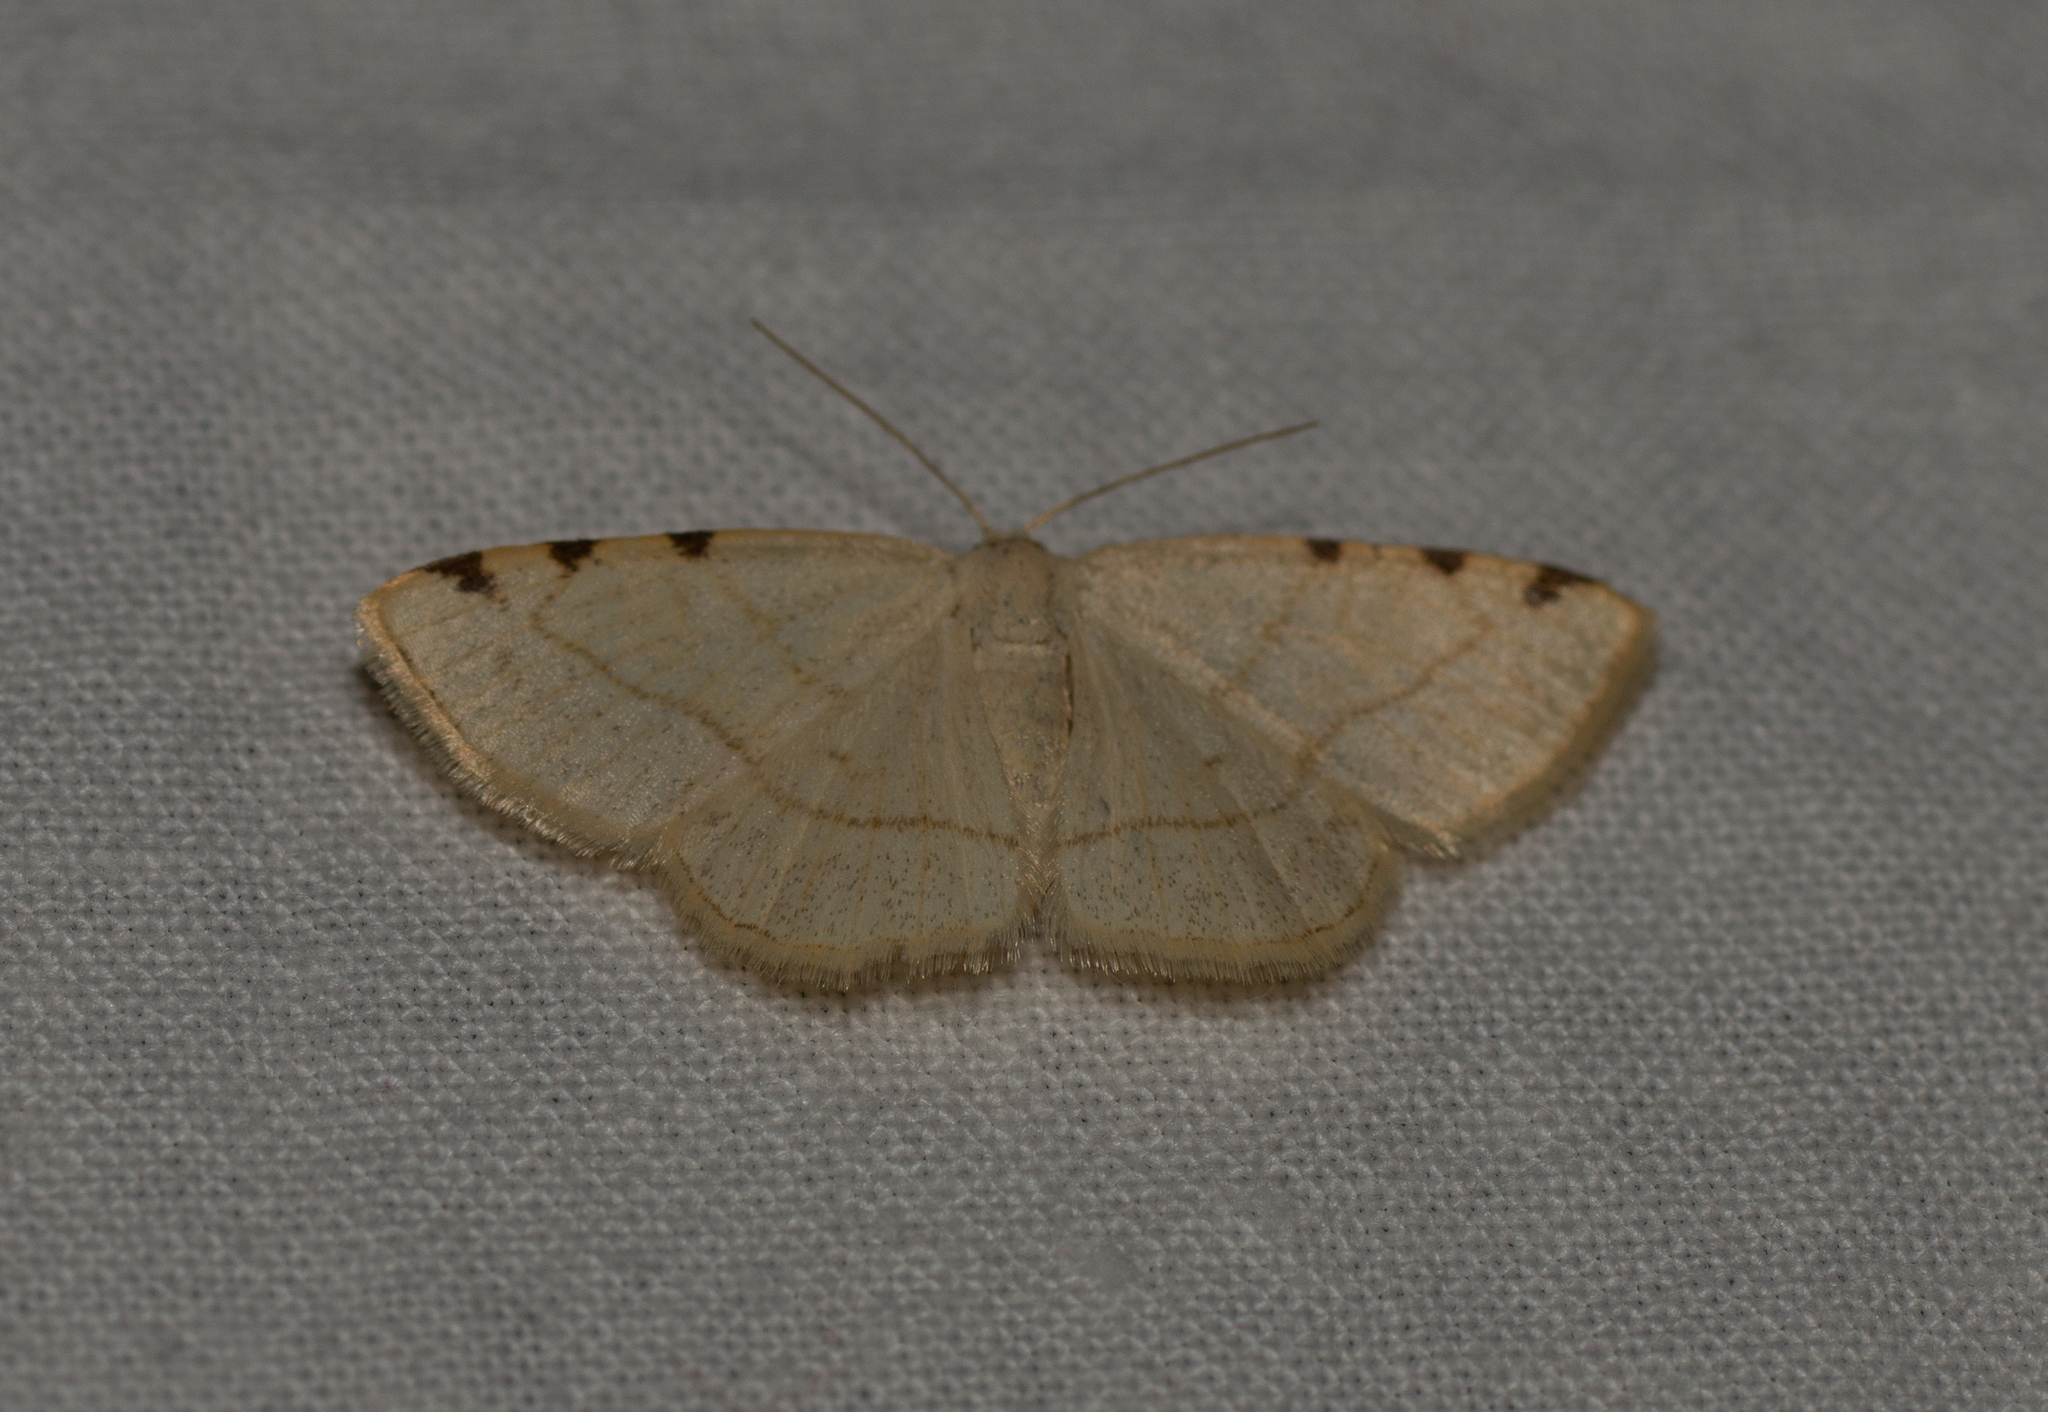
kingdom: Animalia
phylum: Arthropoda
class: Insecta
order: Lepidoptera
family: Geometridae
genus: Stegania
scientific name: Stegania trimaculata
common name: Dorset cream wave
